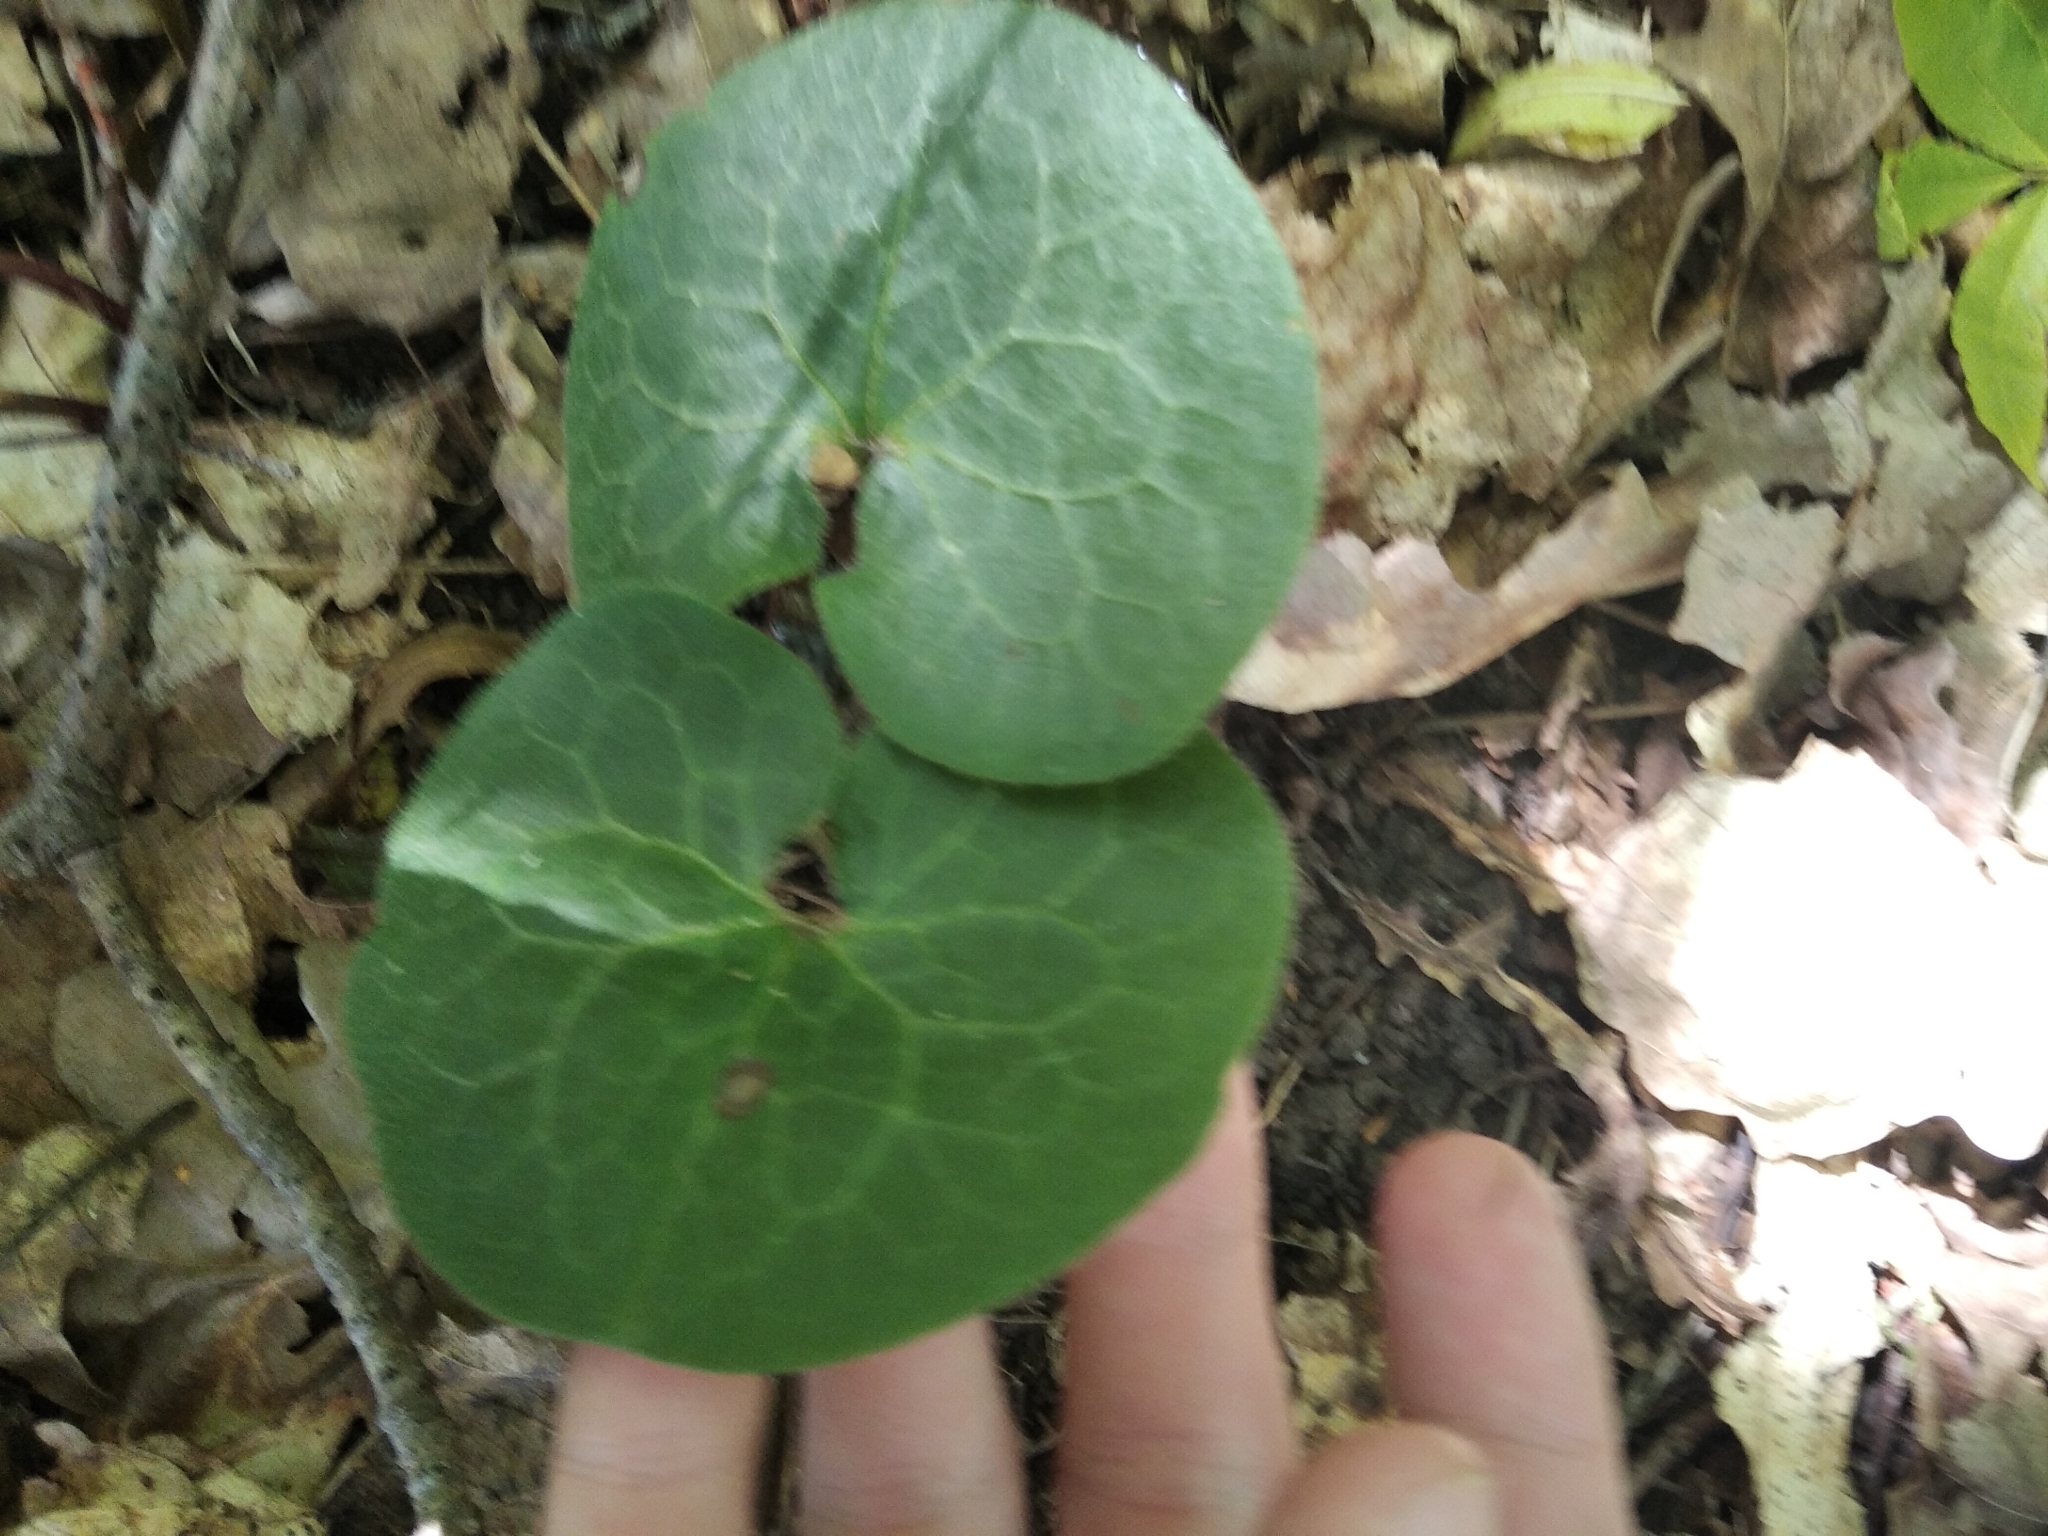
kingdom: Plantae
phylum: Tracheophyta
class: Magnoliopsida
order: Piperales
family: Aristolochiaceae
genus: Asarum
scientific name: Asarum europaeum
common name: Asarabacca
